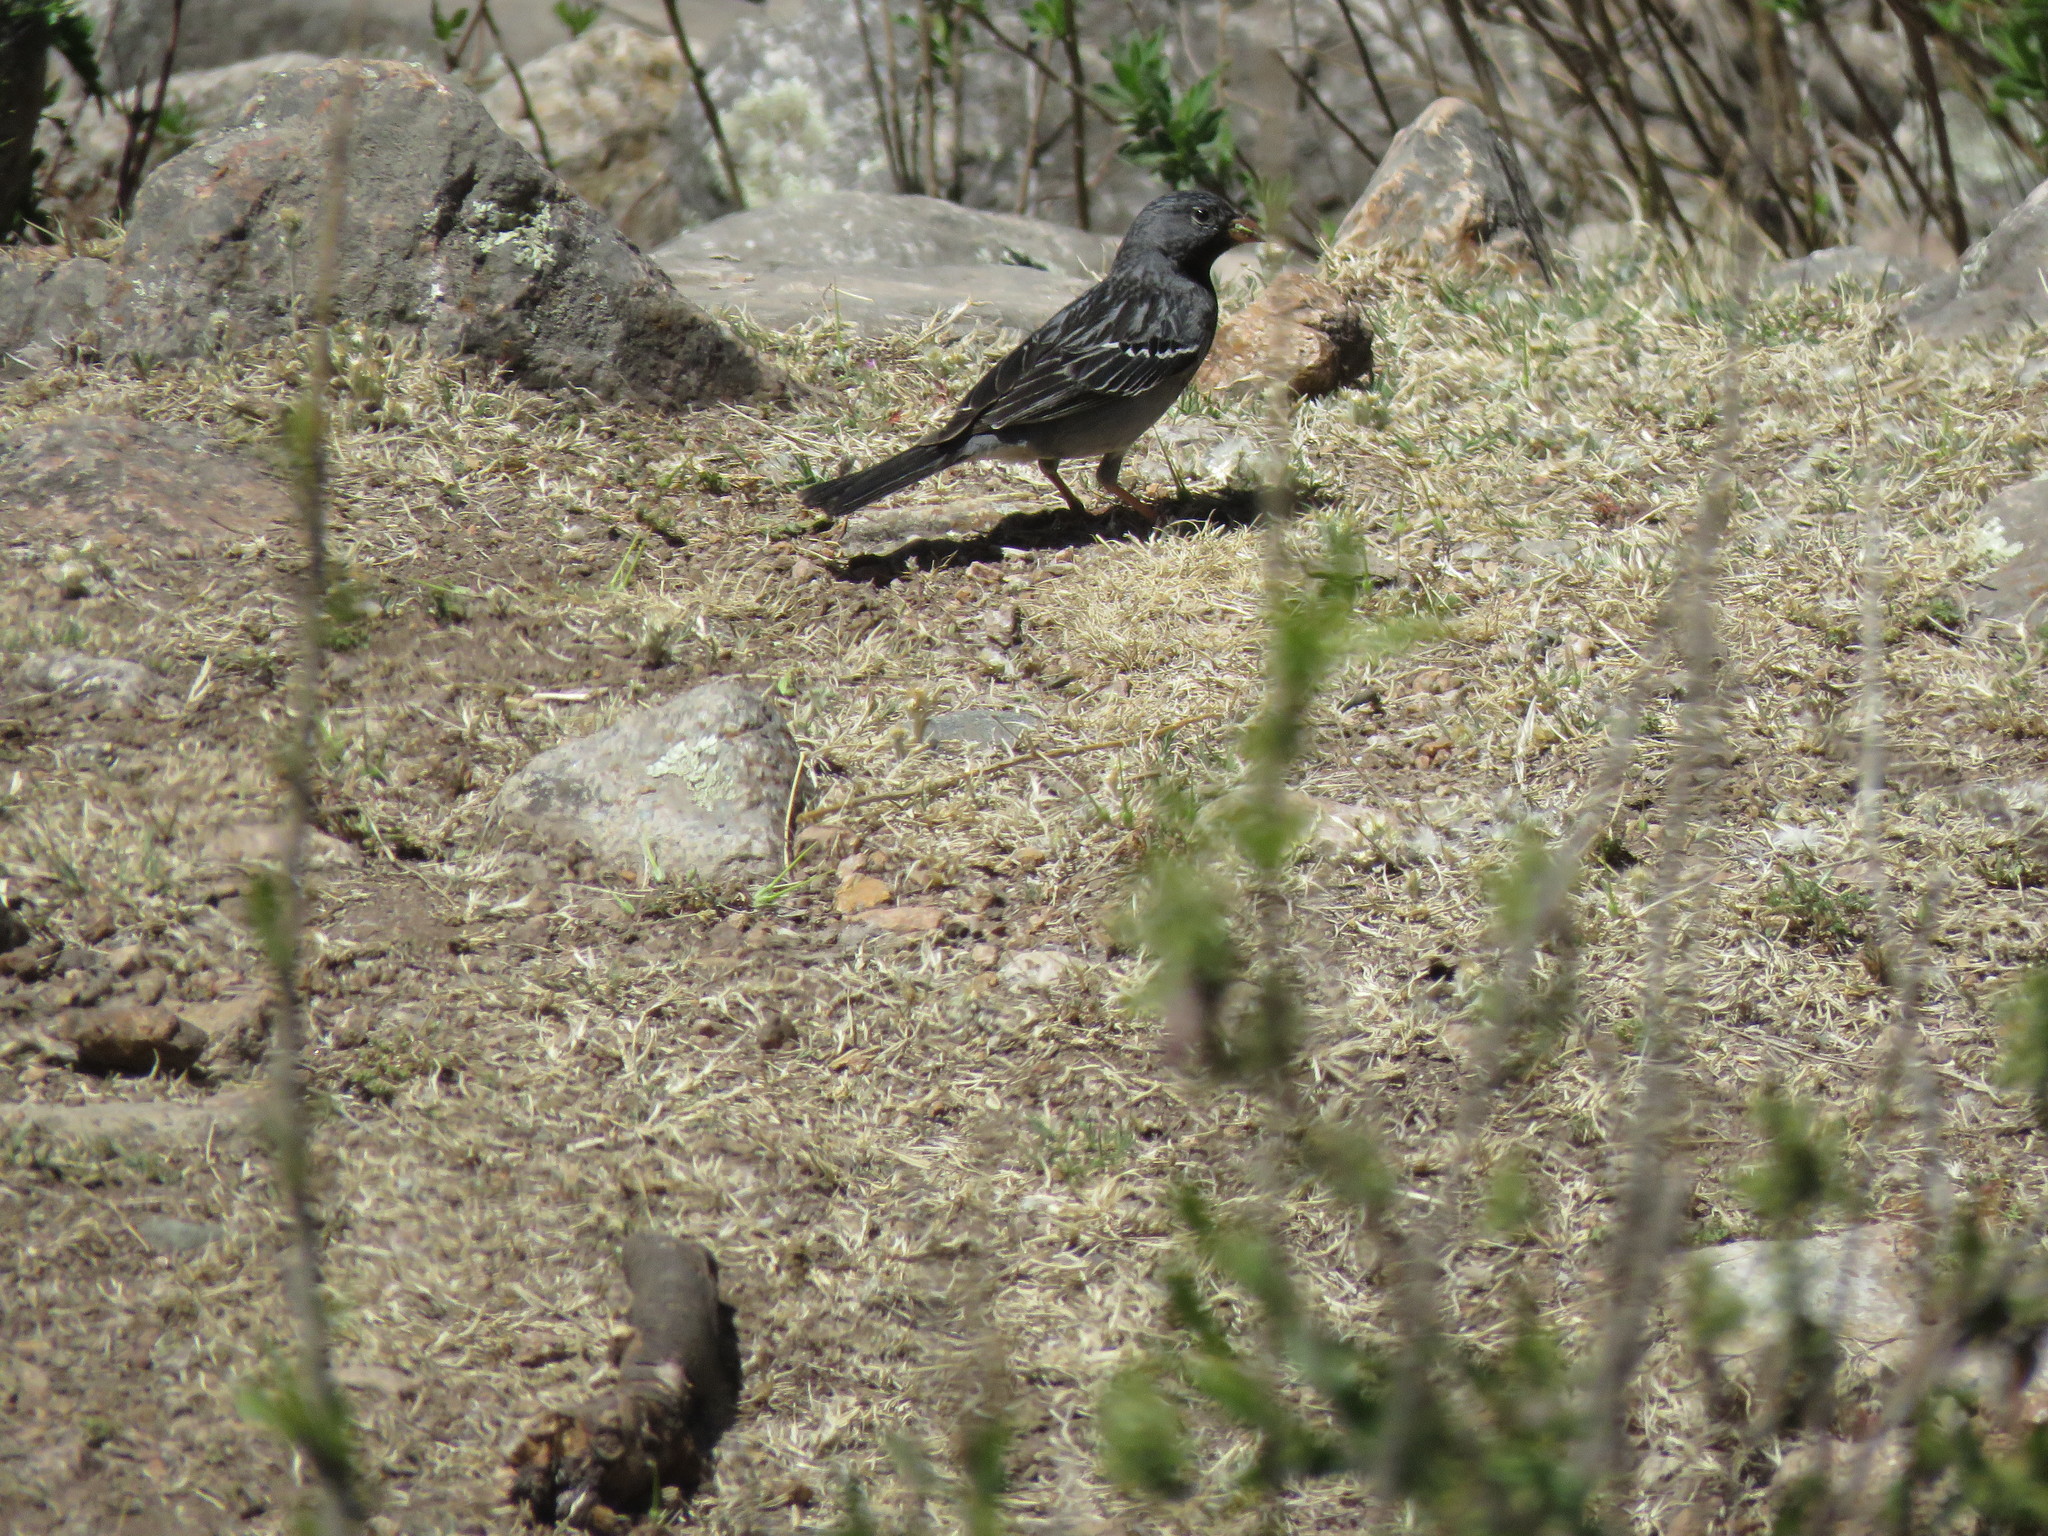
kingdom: Animalia
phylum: Chordata
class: Aves
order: Passeriformes
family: Thraupidae
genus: Rhopospina
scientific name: Rhopospina fruticeti
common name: Mourning sierra finch
